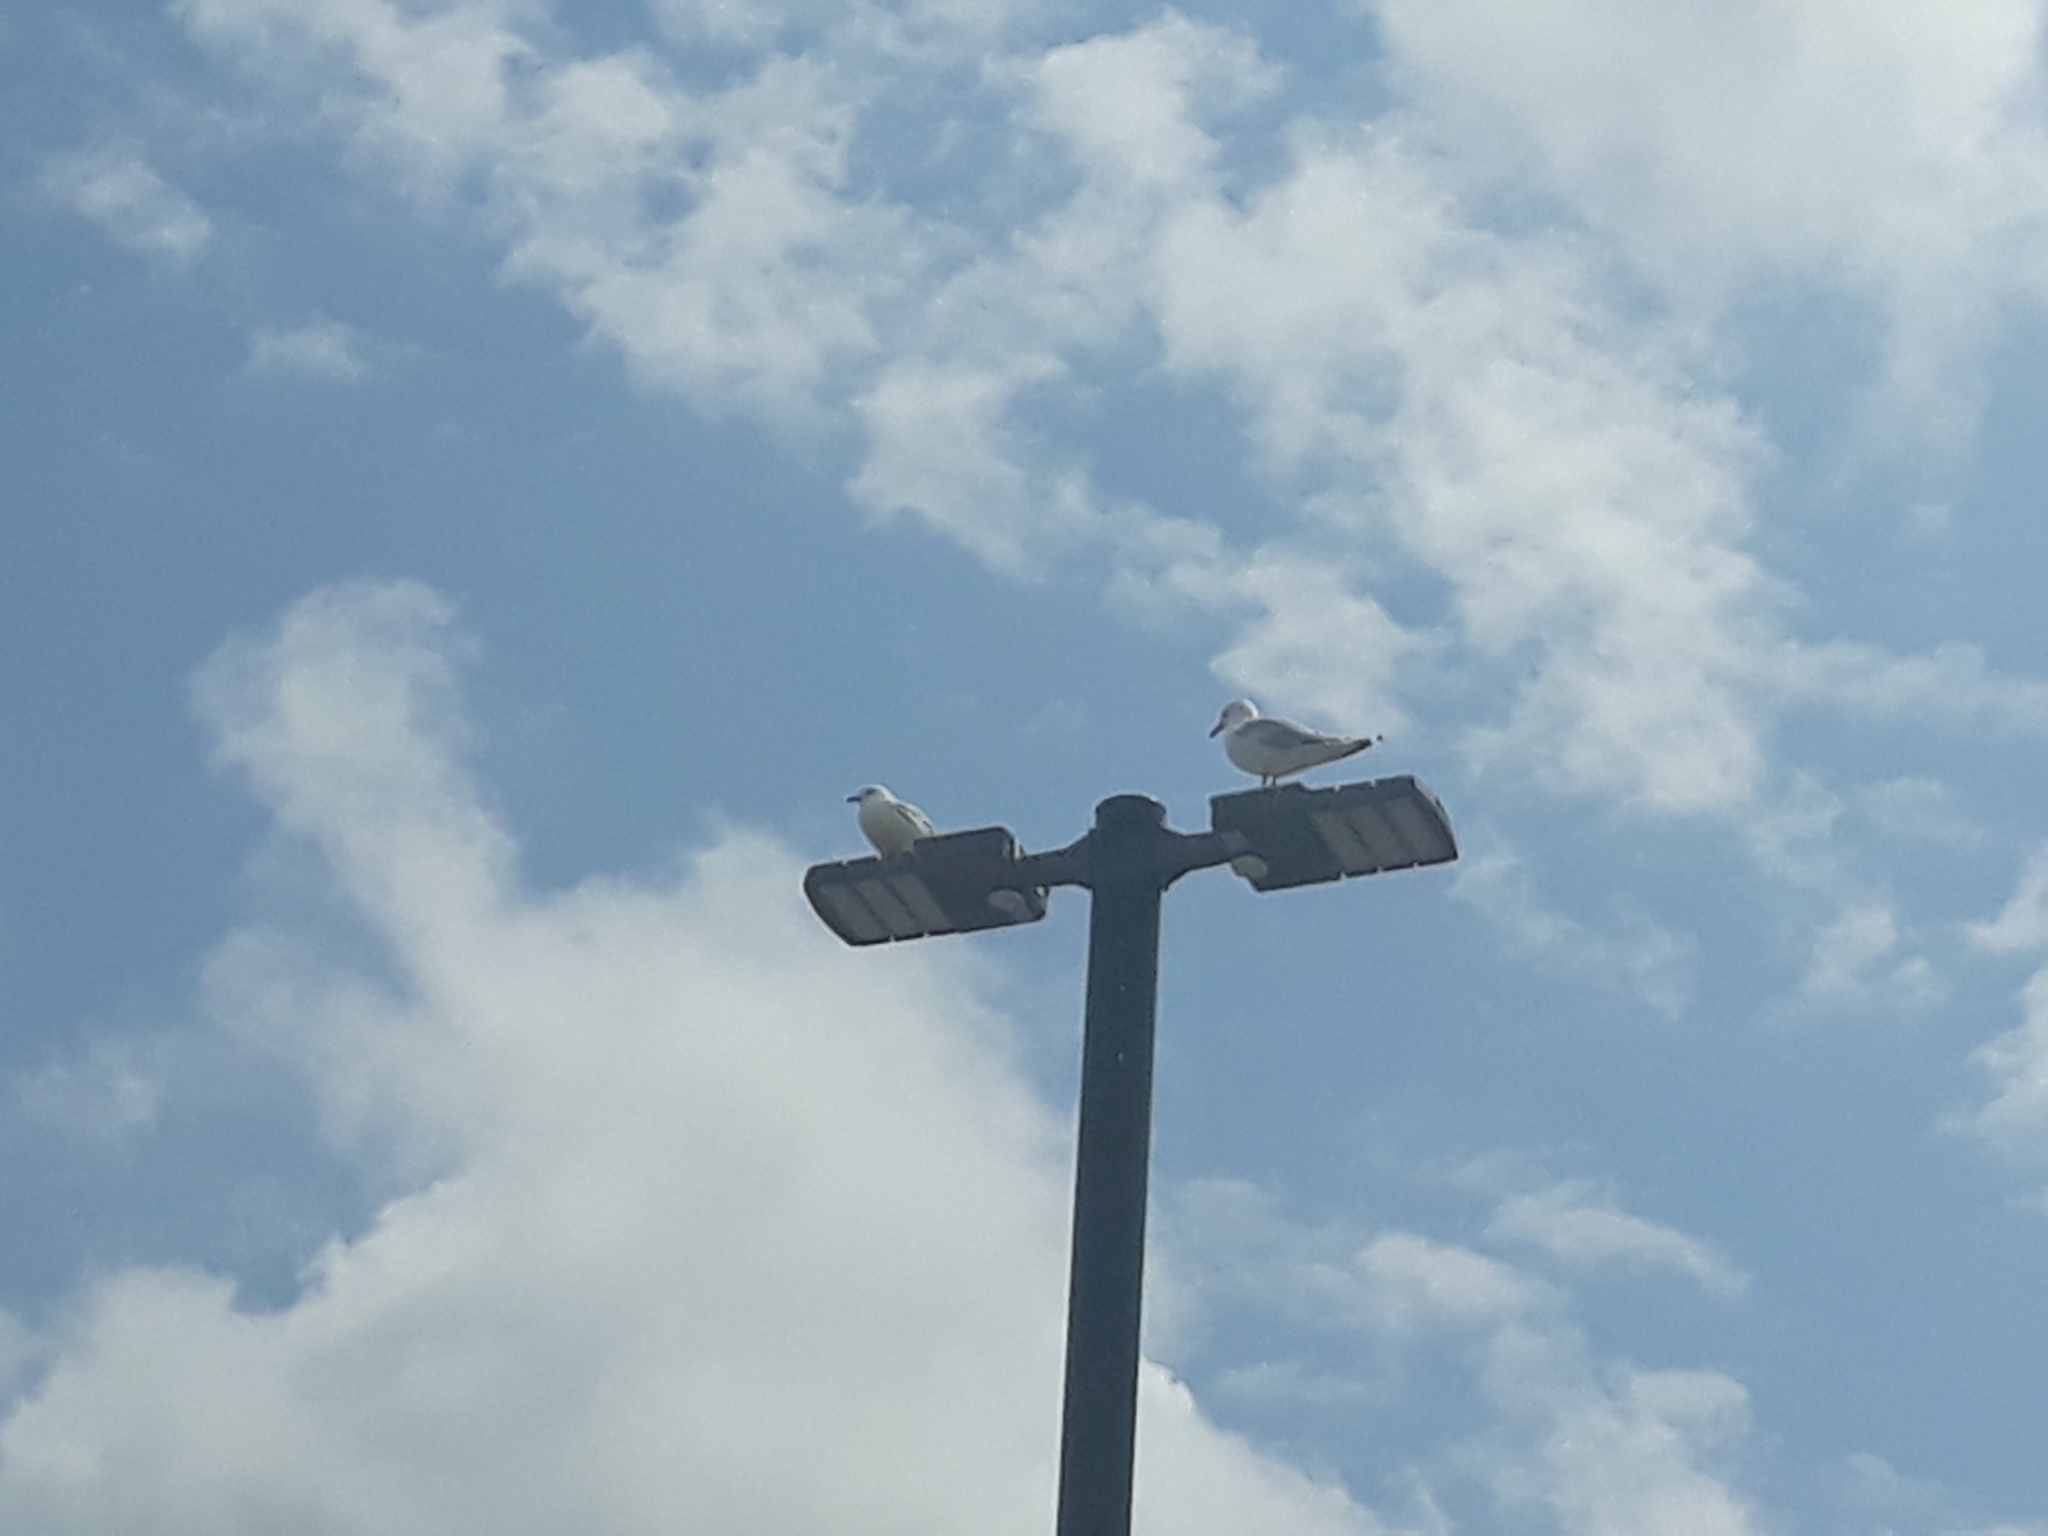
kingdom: Animalia
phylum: Chordata
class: Aves
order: Charadriiformes
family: Laridae
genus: Larus
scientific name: Larus delawarensis
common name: Ring-billed gull
